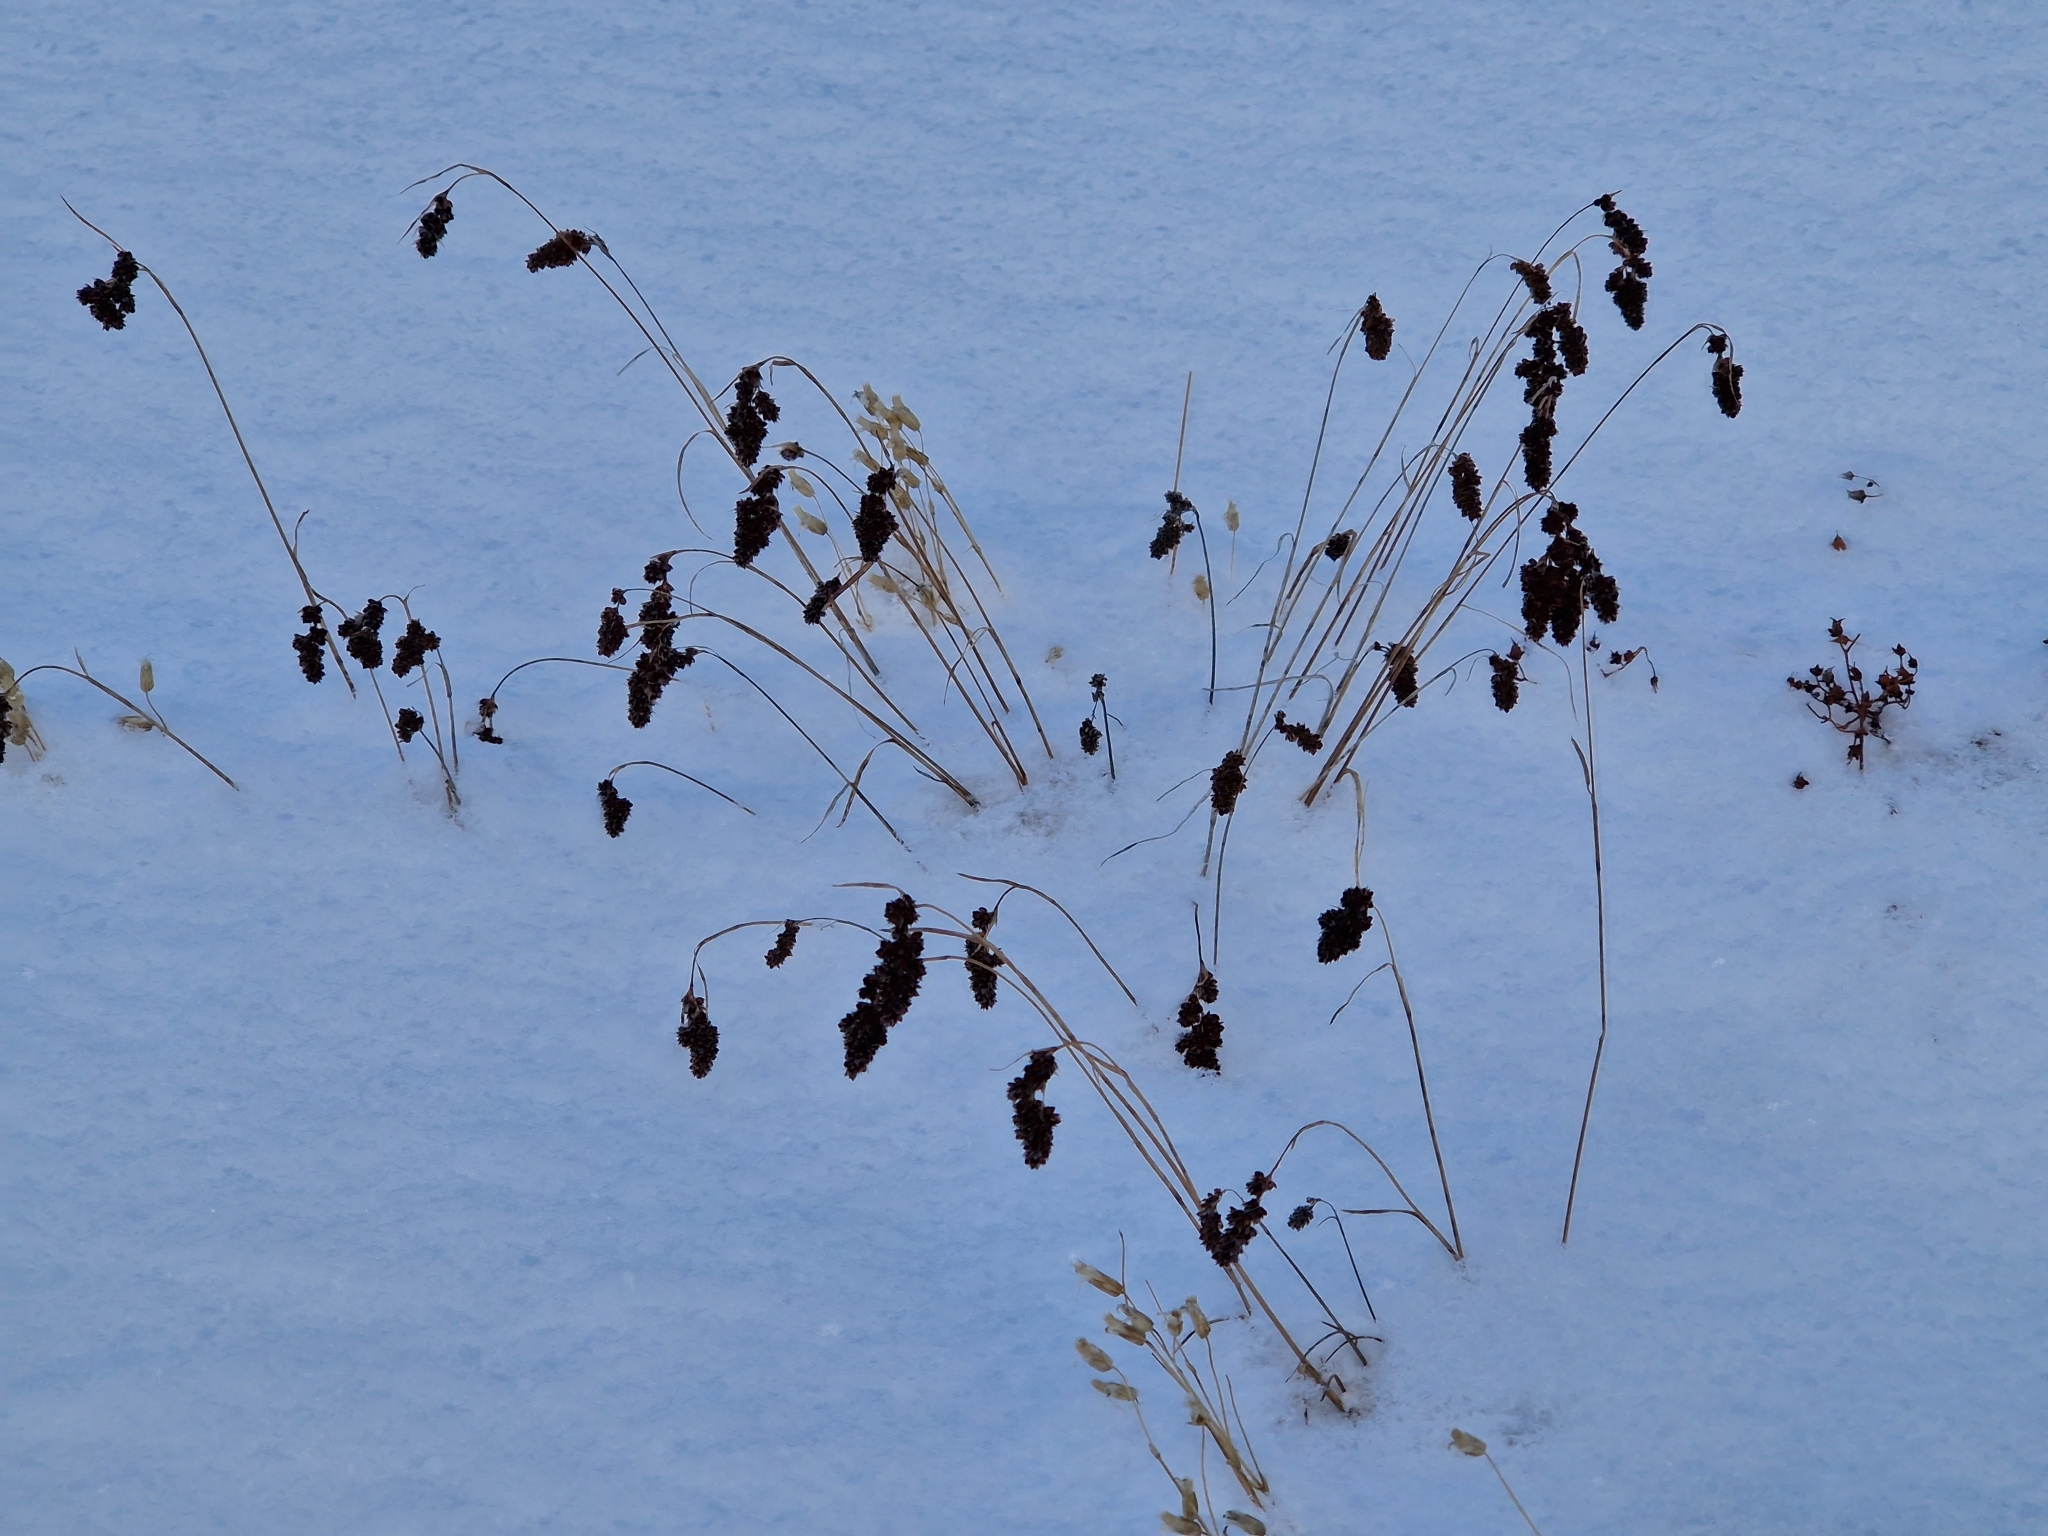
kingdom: Plantae
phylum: Tracheophyta
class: Liliopsida
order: Poales
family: Juncaceae
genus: Luzula
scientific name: Luzula spicata
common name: Spiked wood-rush
